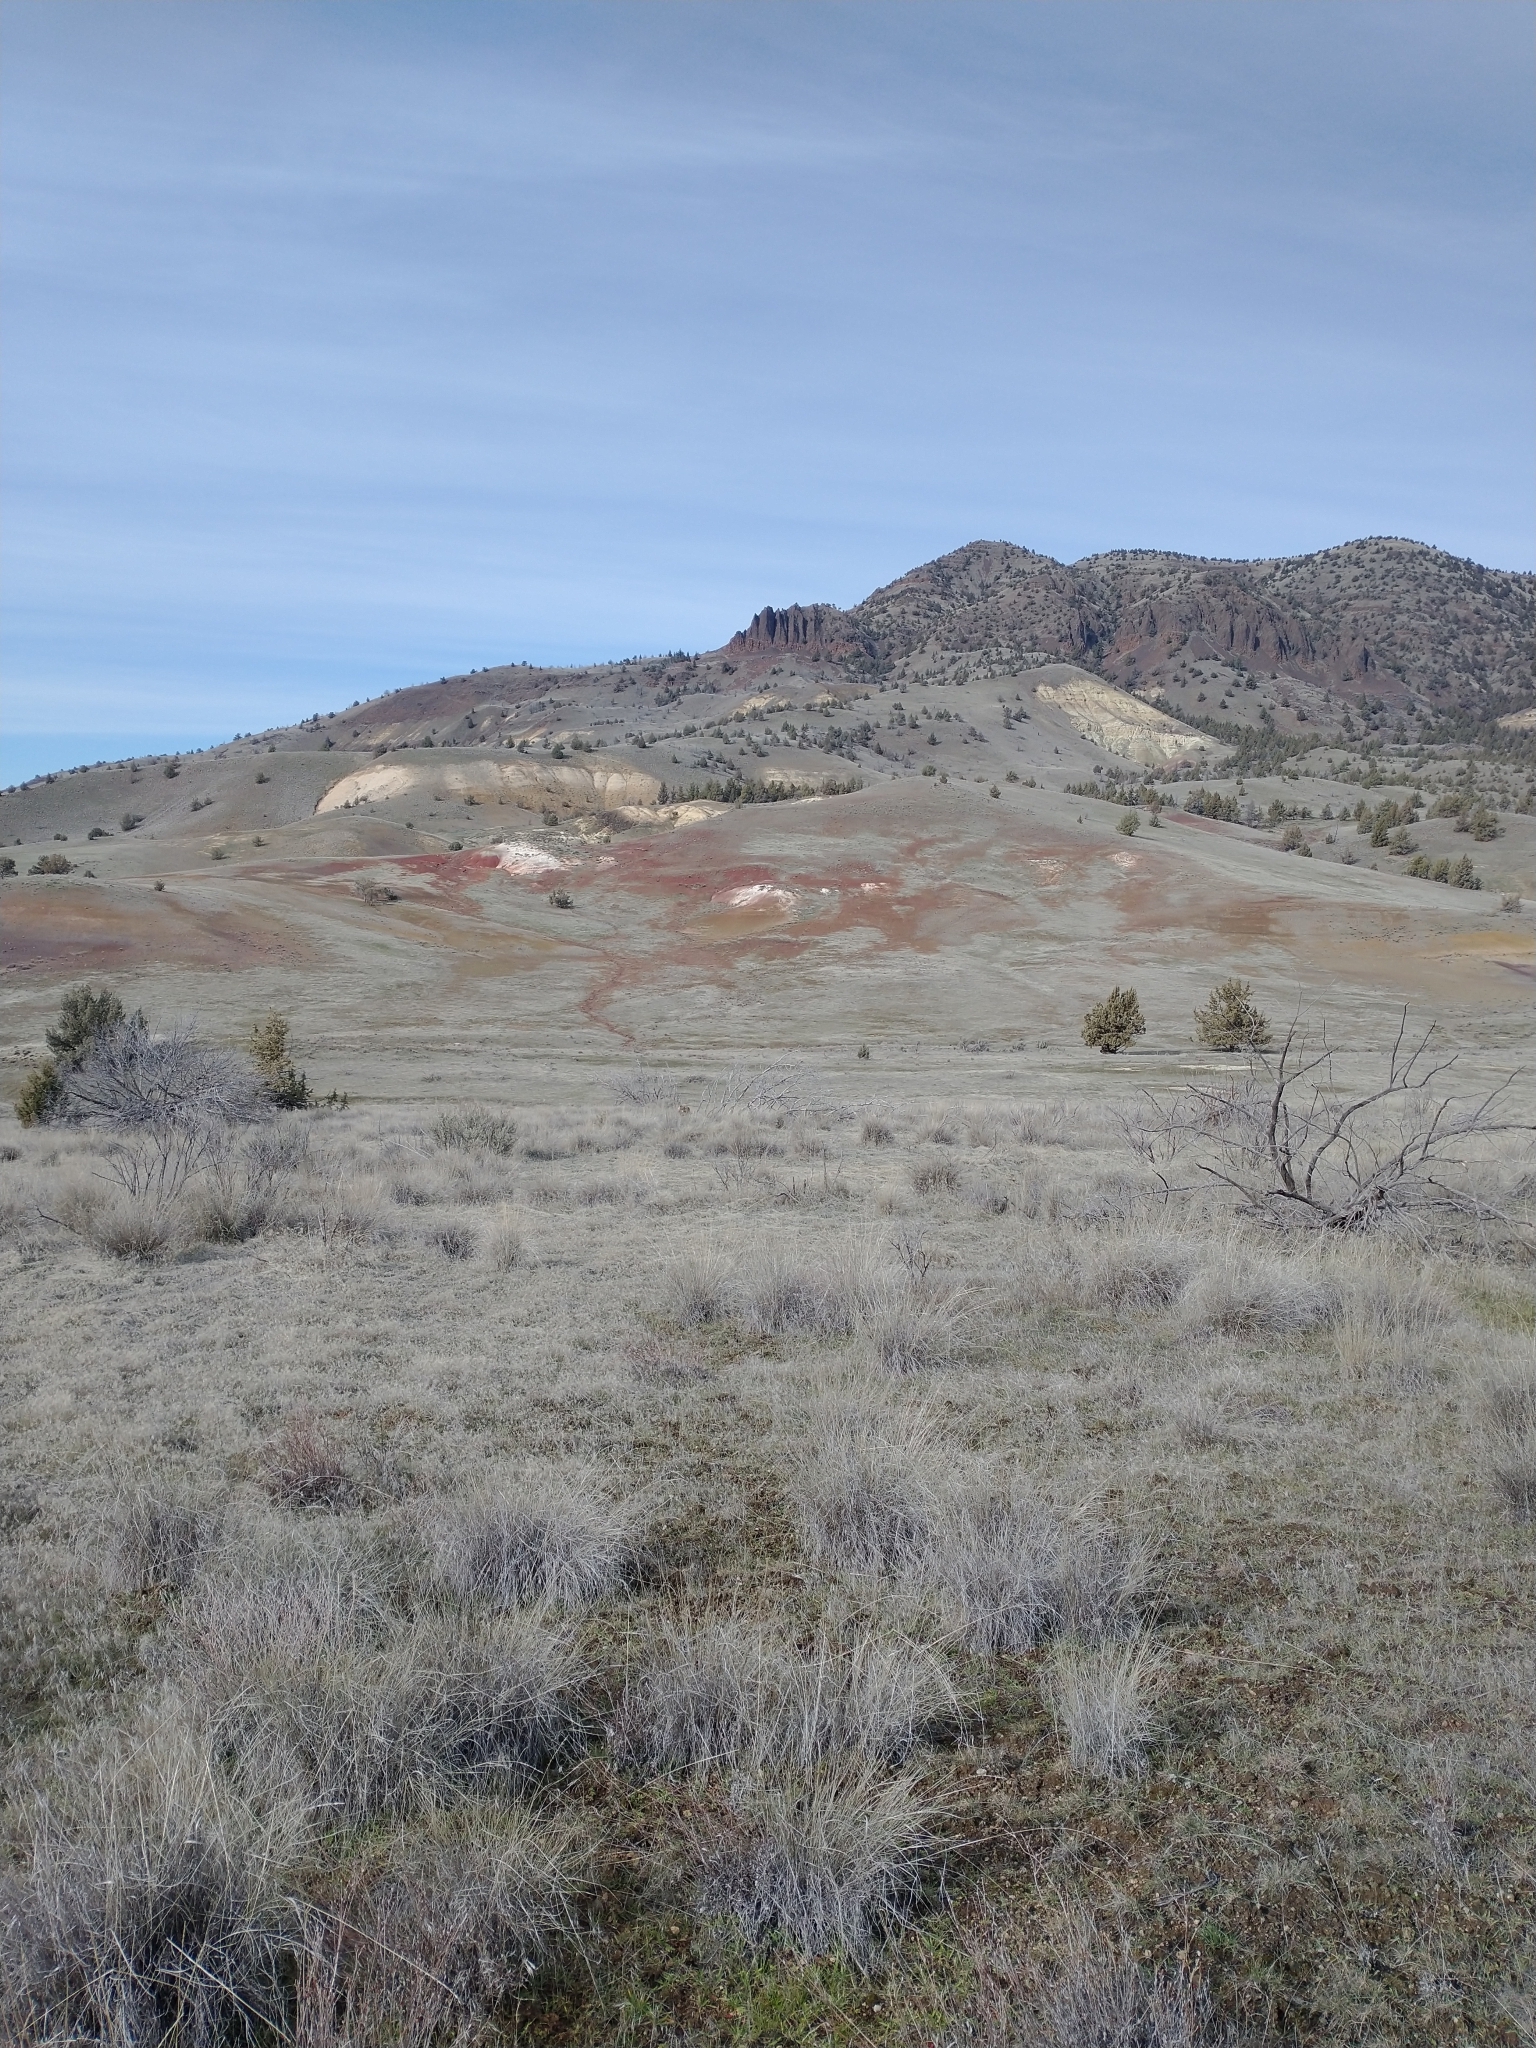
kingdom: Plantae
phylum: Tracheophyta
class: Pinopsida
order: Pinales
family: Cupressaceae
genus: Juniperus
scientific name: Juniperus occidentalis
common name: Western juniper
